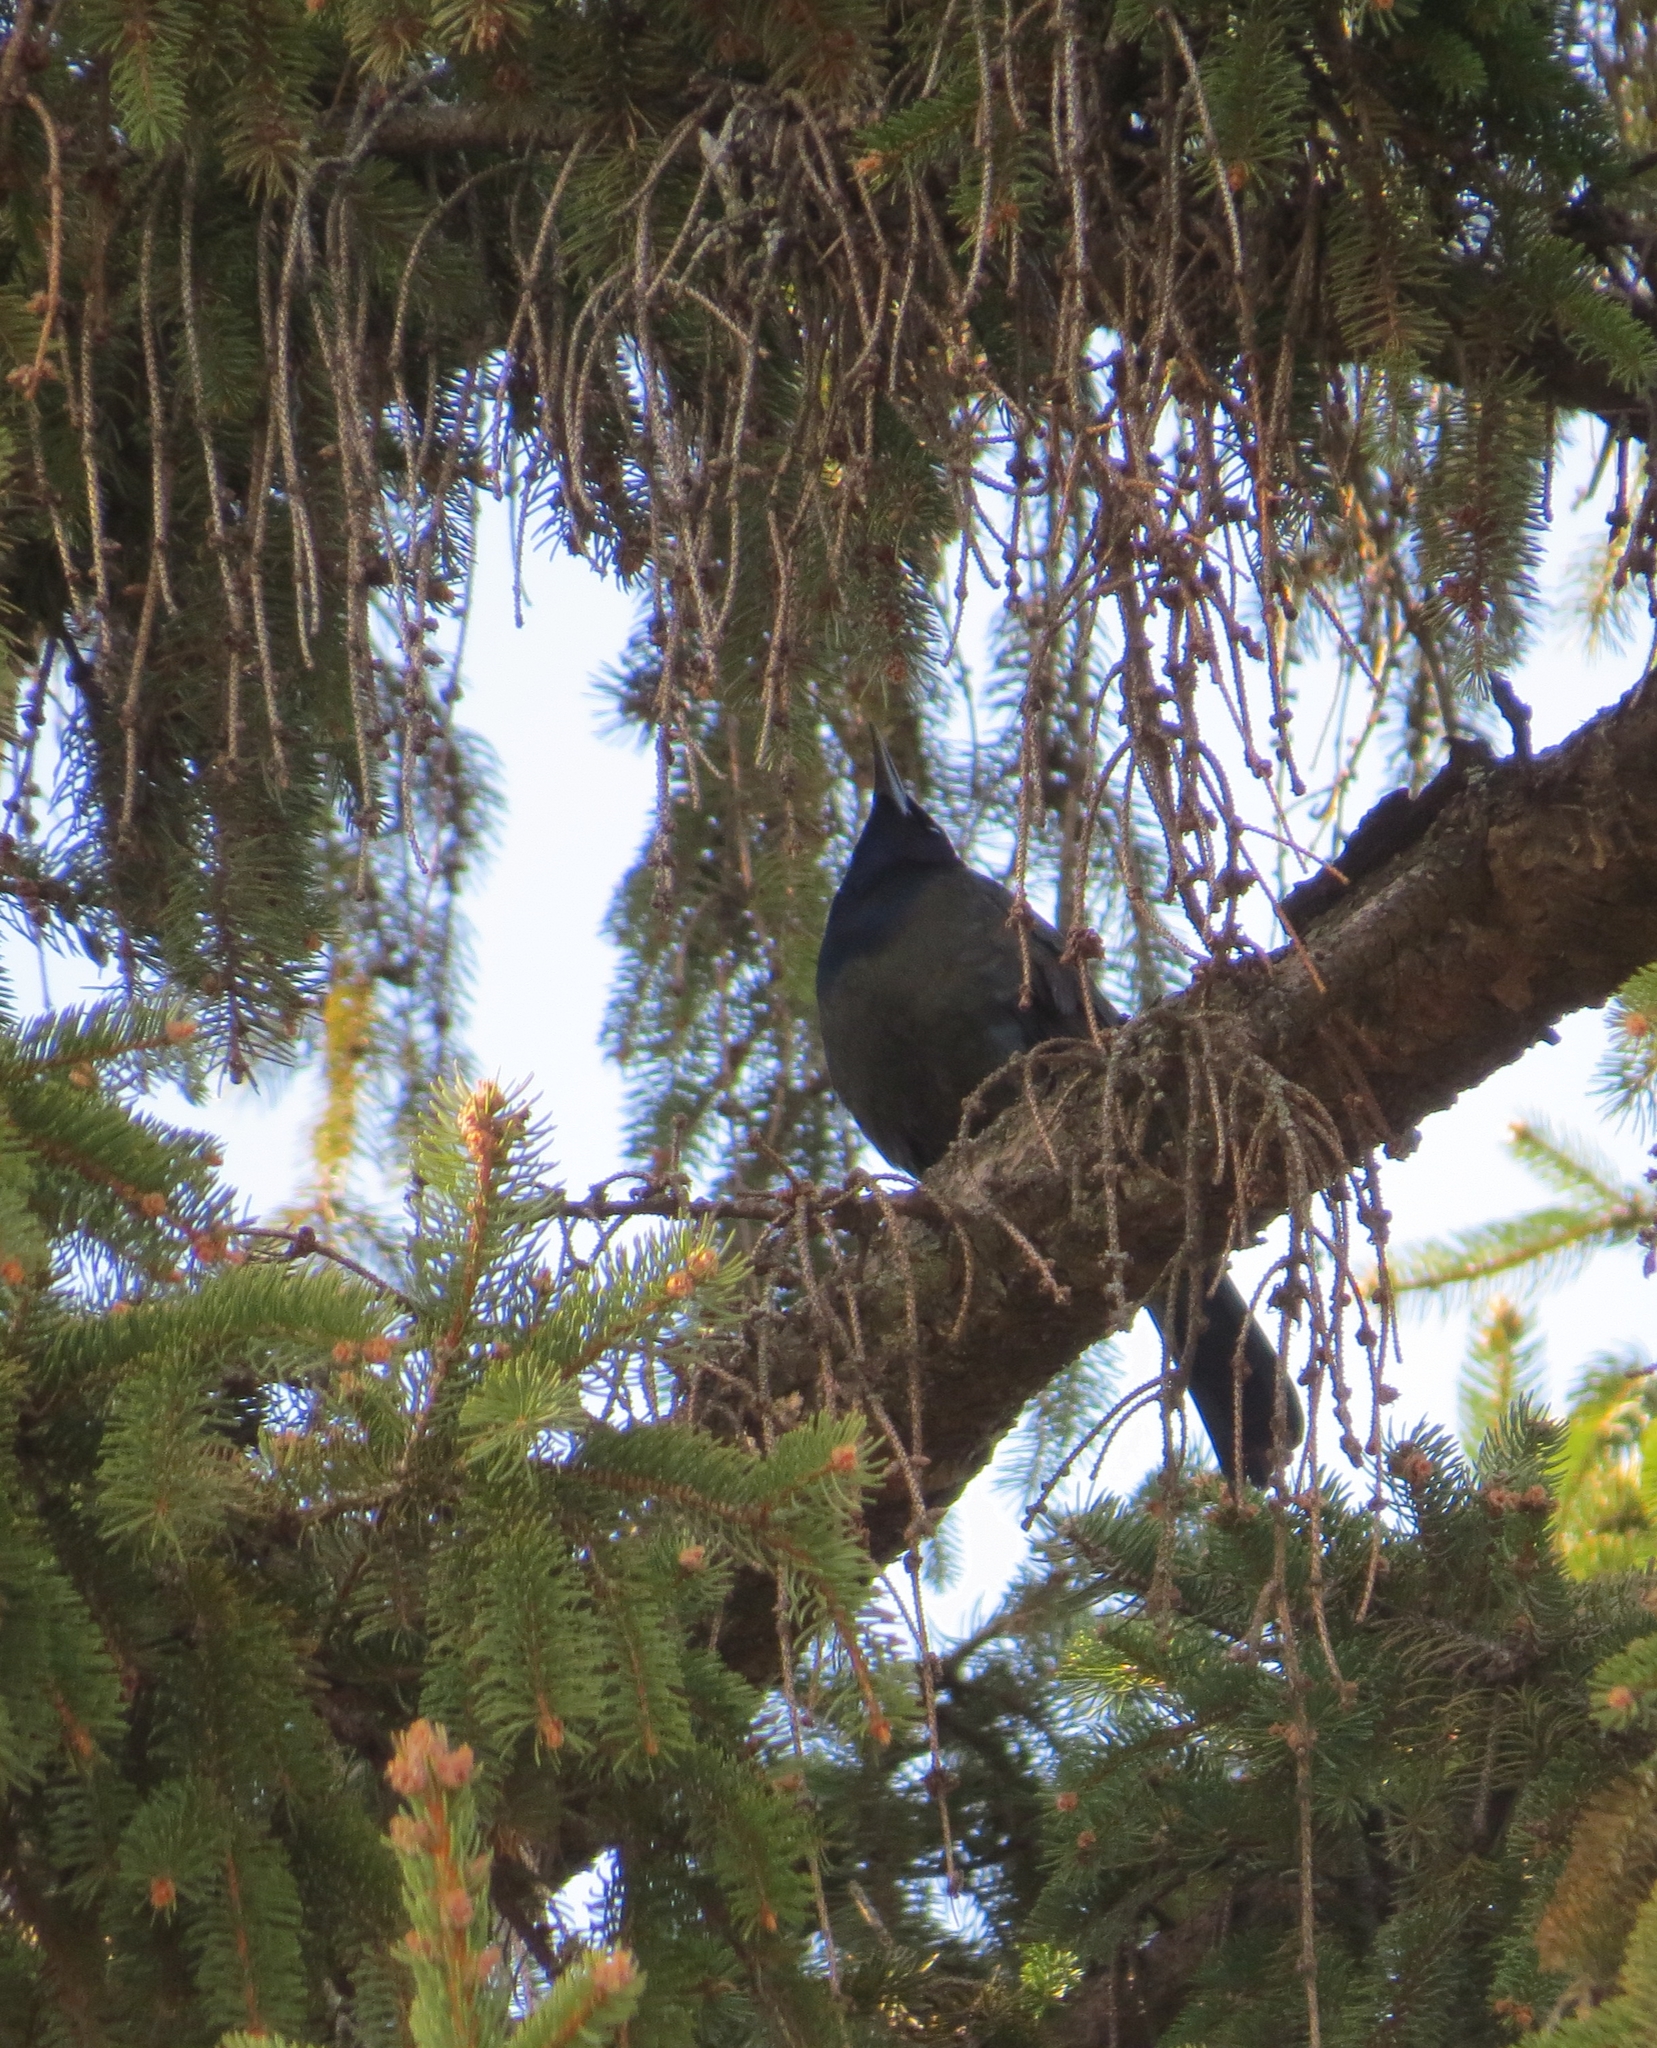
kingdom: Animalia
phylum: Chordata
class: Aves
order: Passeriformes
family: Icteridae
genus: Quiscalus
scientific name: Quiscalus quiscula
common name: Common grackle
